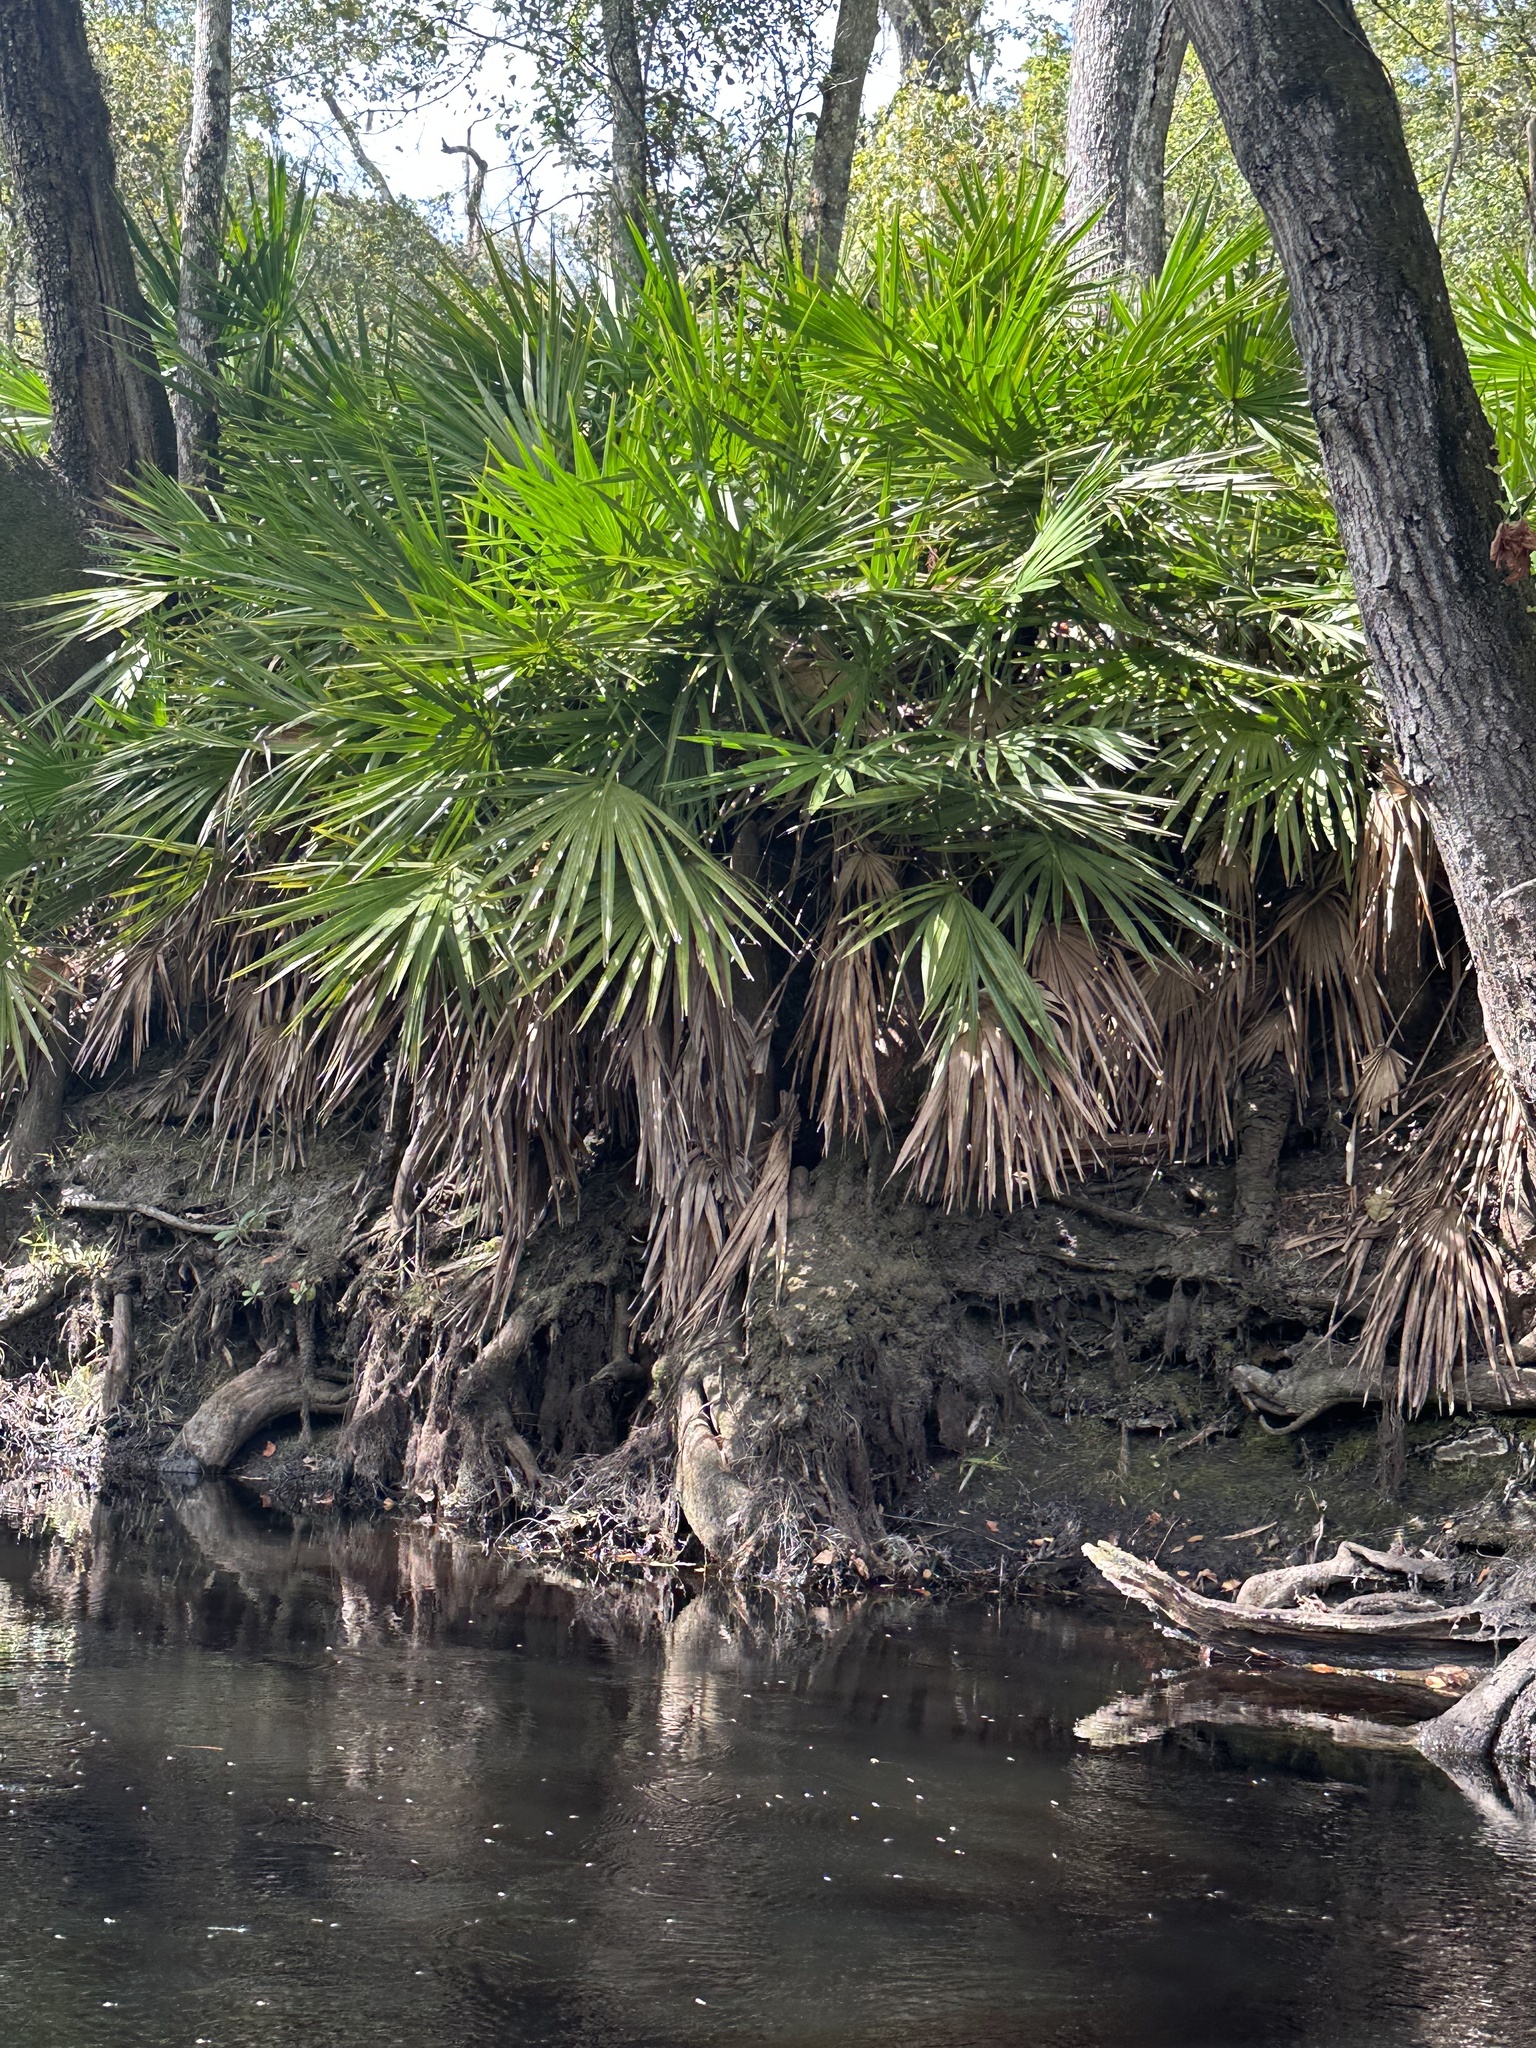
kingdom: Plantae
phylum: Tracheophyta
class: Liliopsida
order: Arecales
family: Arecaceae
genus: Serenoa
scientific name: Serenoa repens
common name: Saw-palmetto
